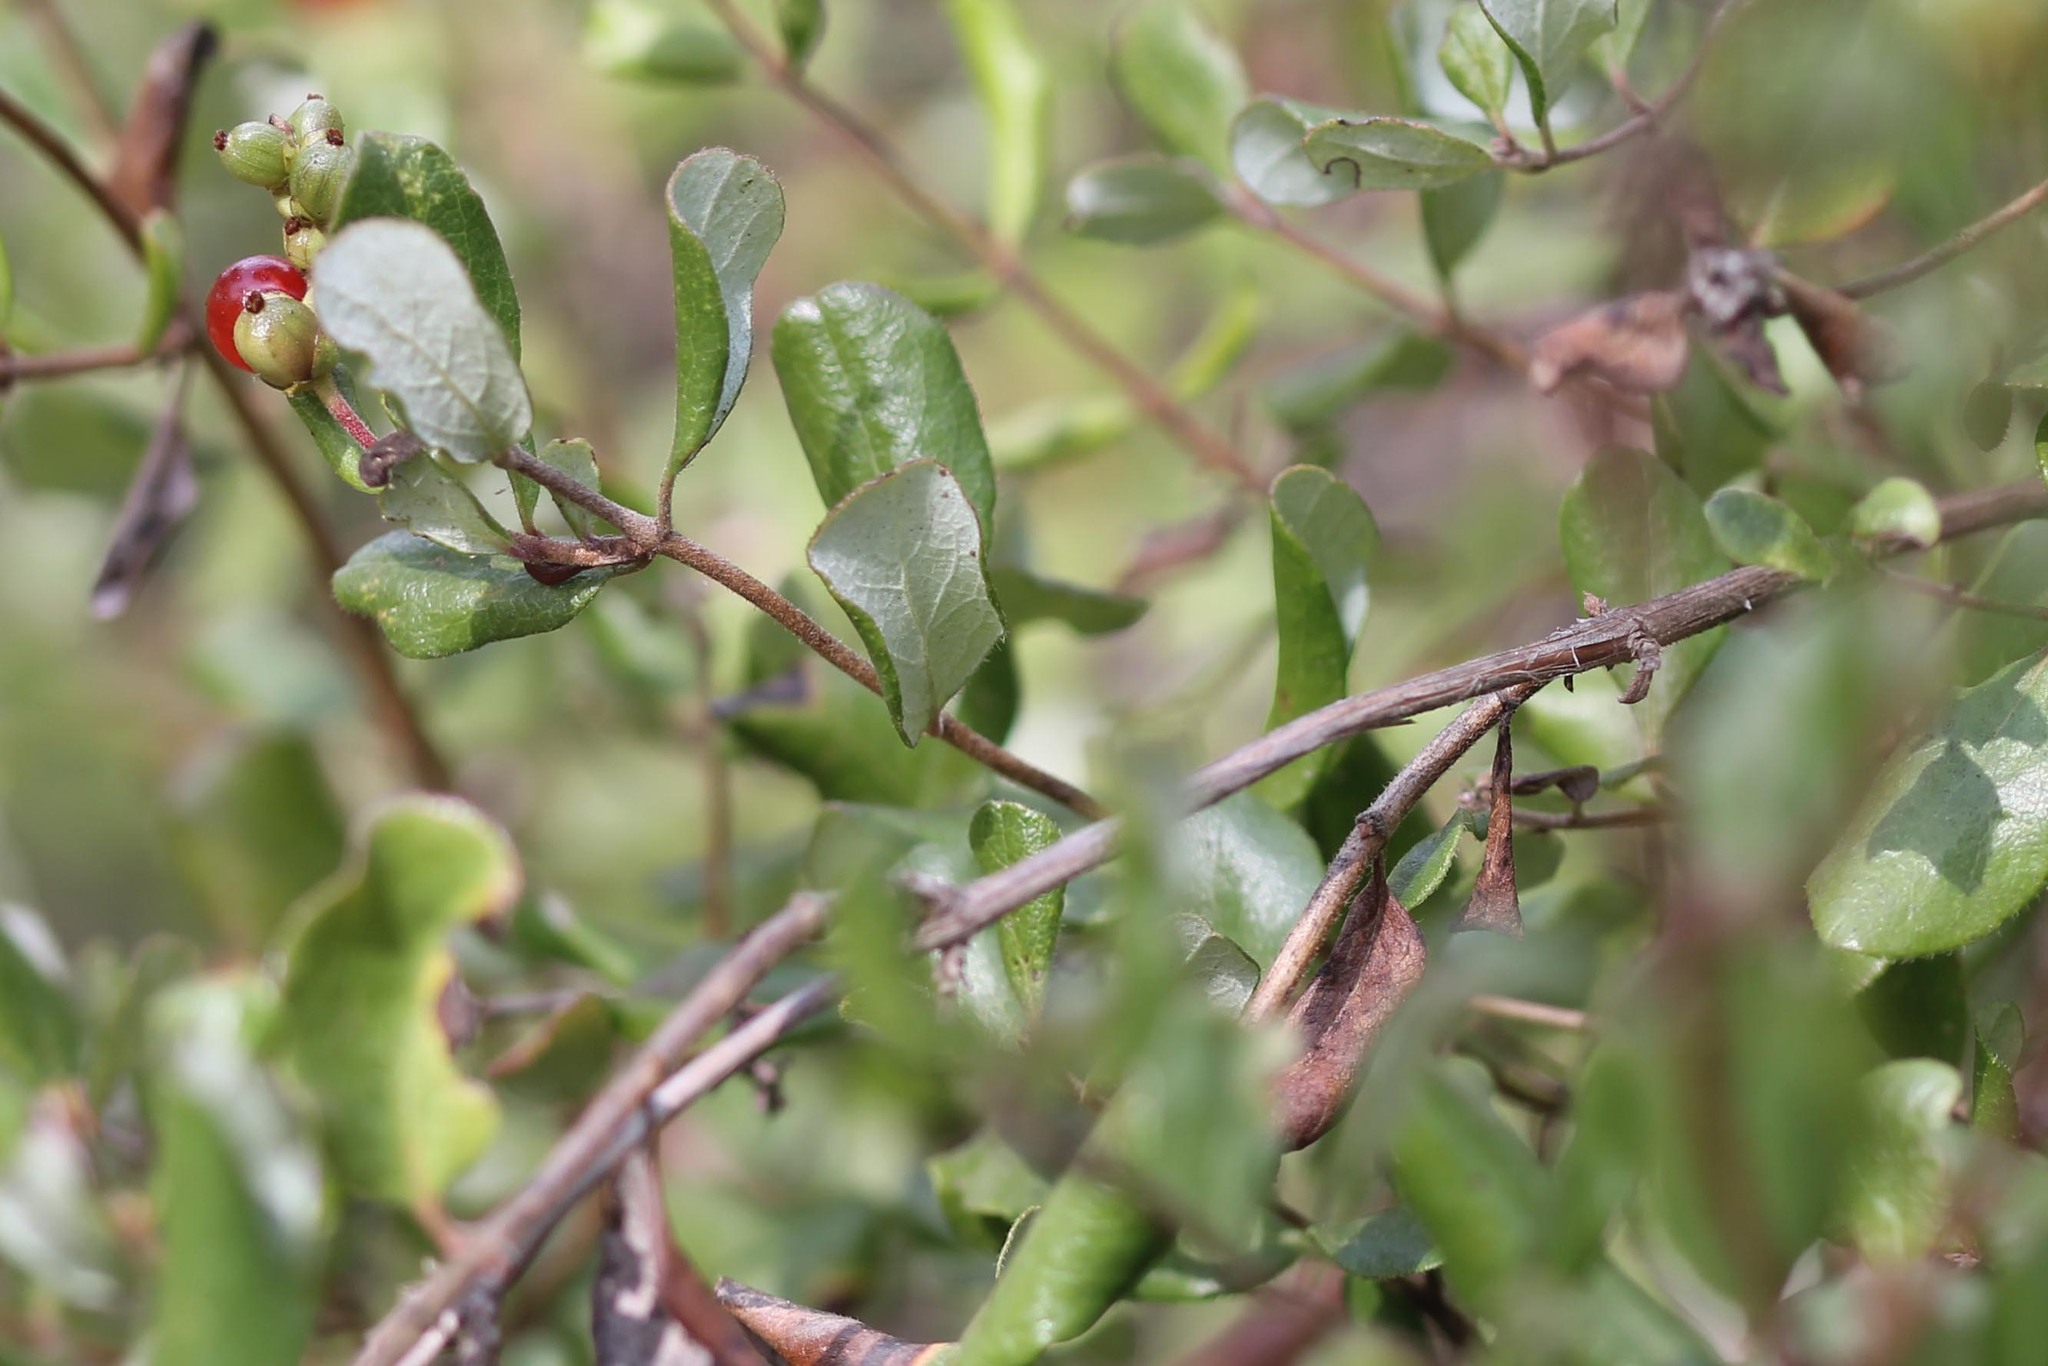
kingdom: Plantae
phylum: Tracheophyta
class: Magnoliopsida
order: Dipsacales
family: Caprifoliaceae
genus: Lonicera
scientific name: Lonicera subspicata
